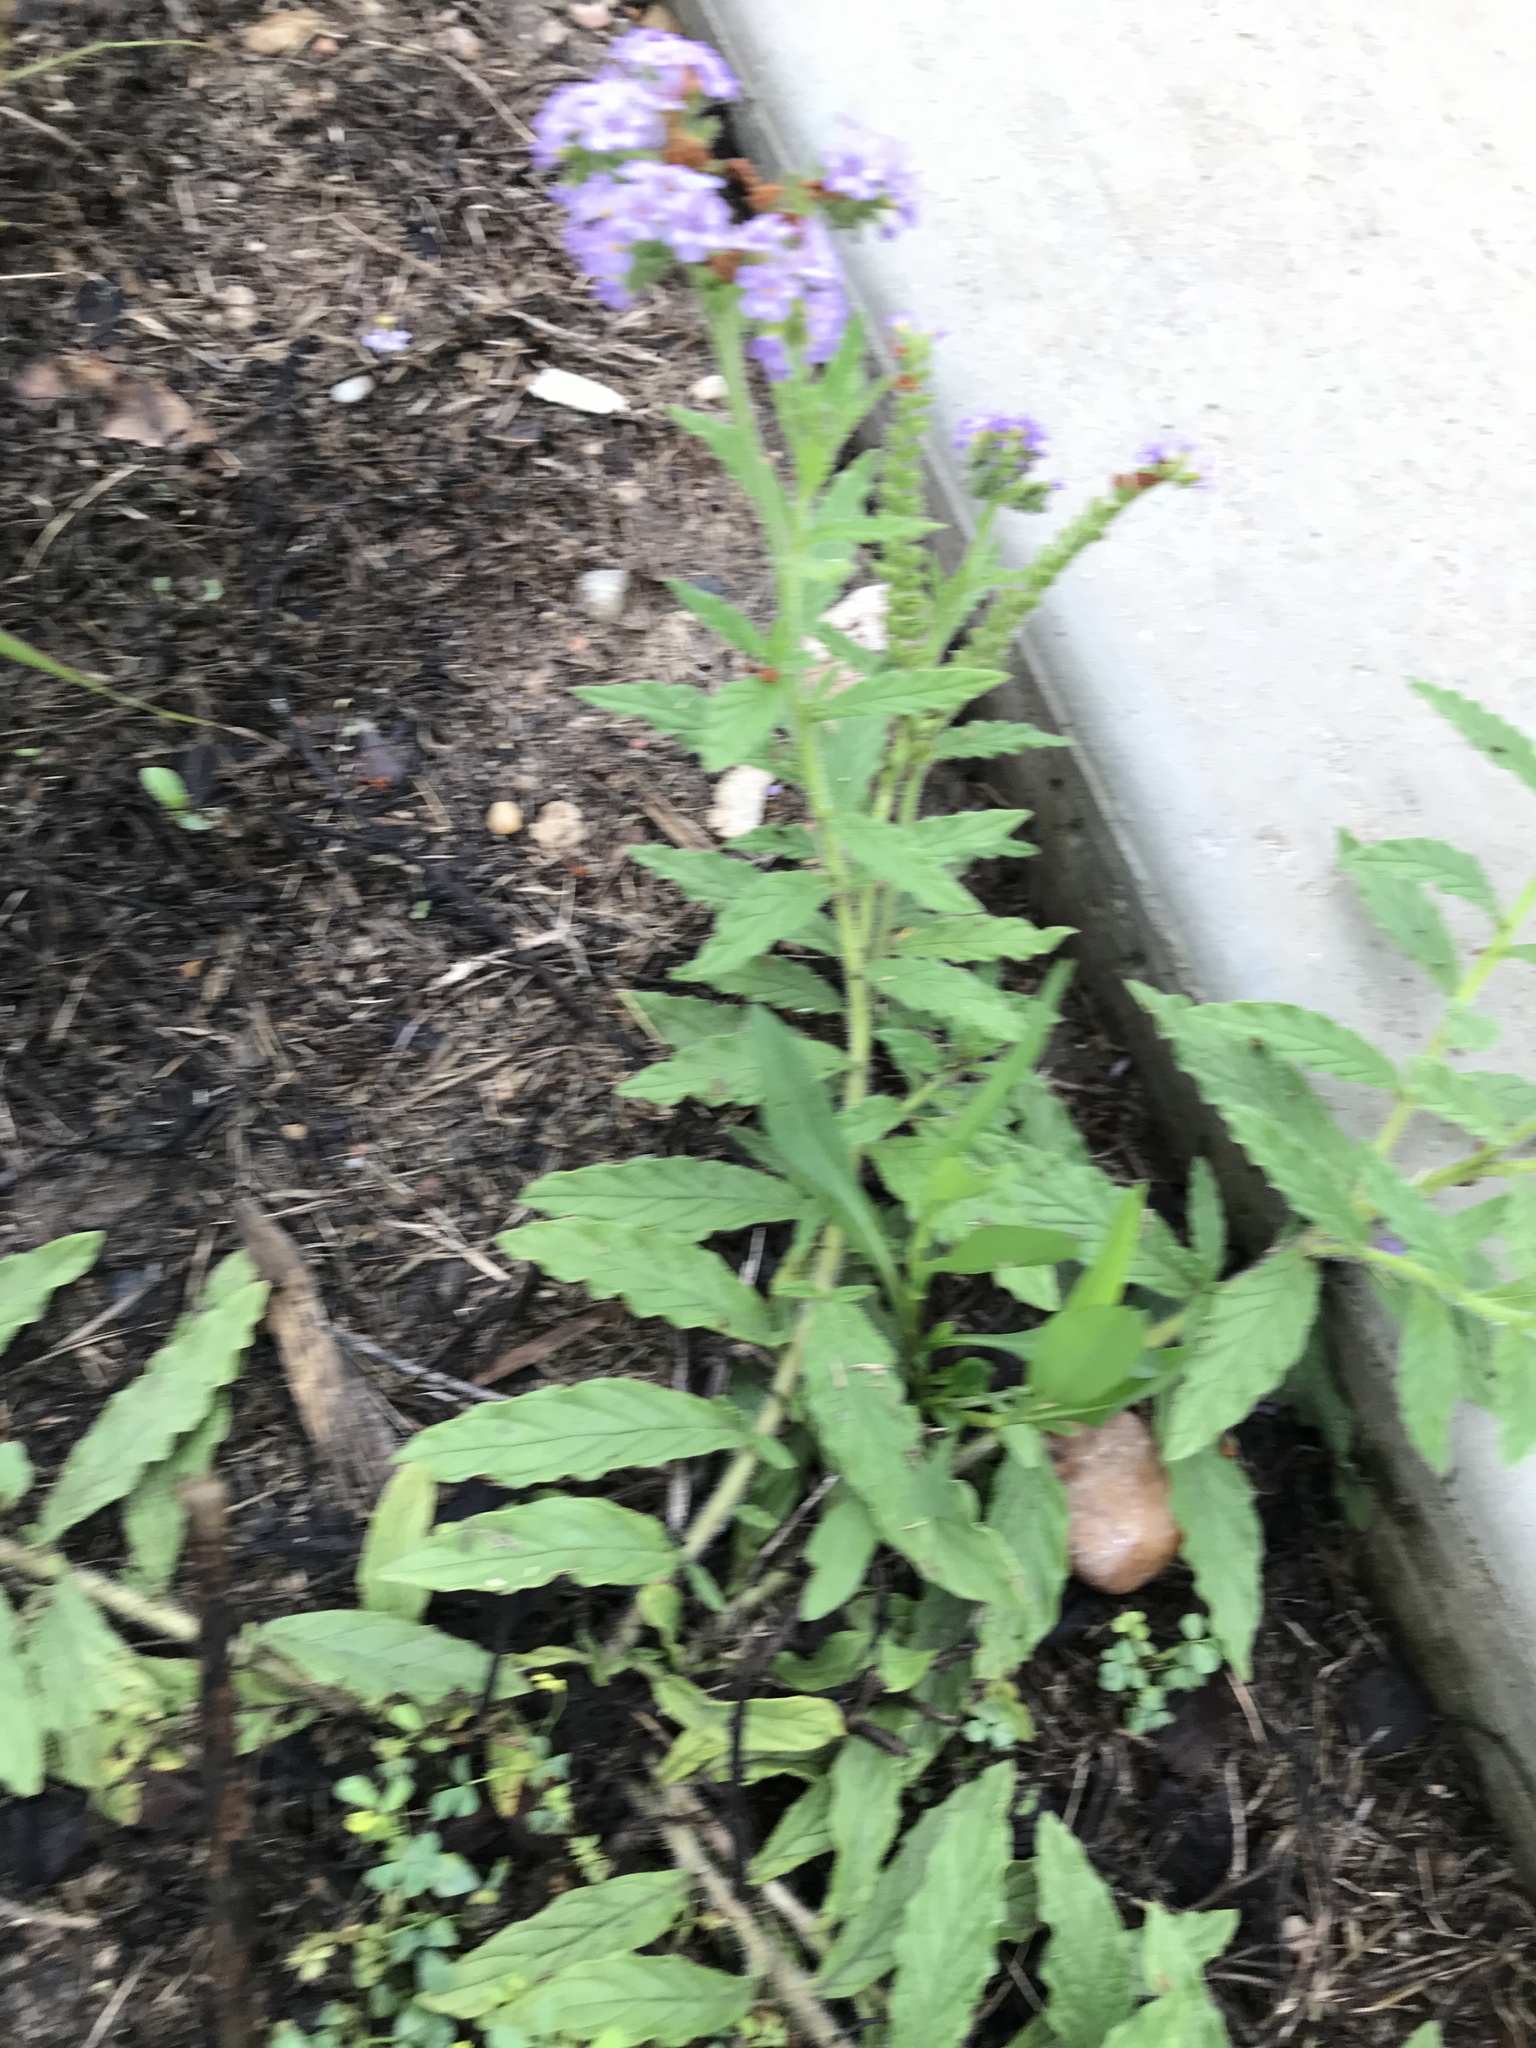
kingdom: Plantae
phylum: Tracheophyta
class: Magnoliopsida
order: Boraginales
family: Heliotropiaceae
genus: Heliotropium
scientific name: Heliotropium amplexicaule
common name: Clasping heliotrope
